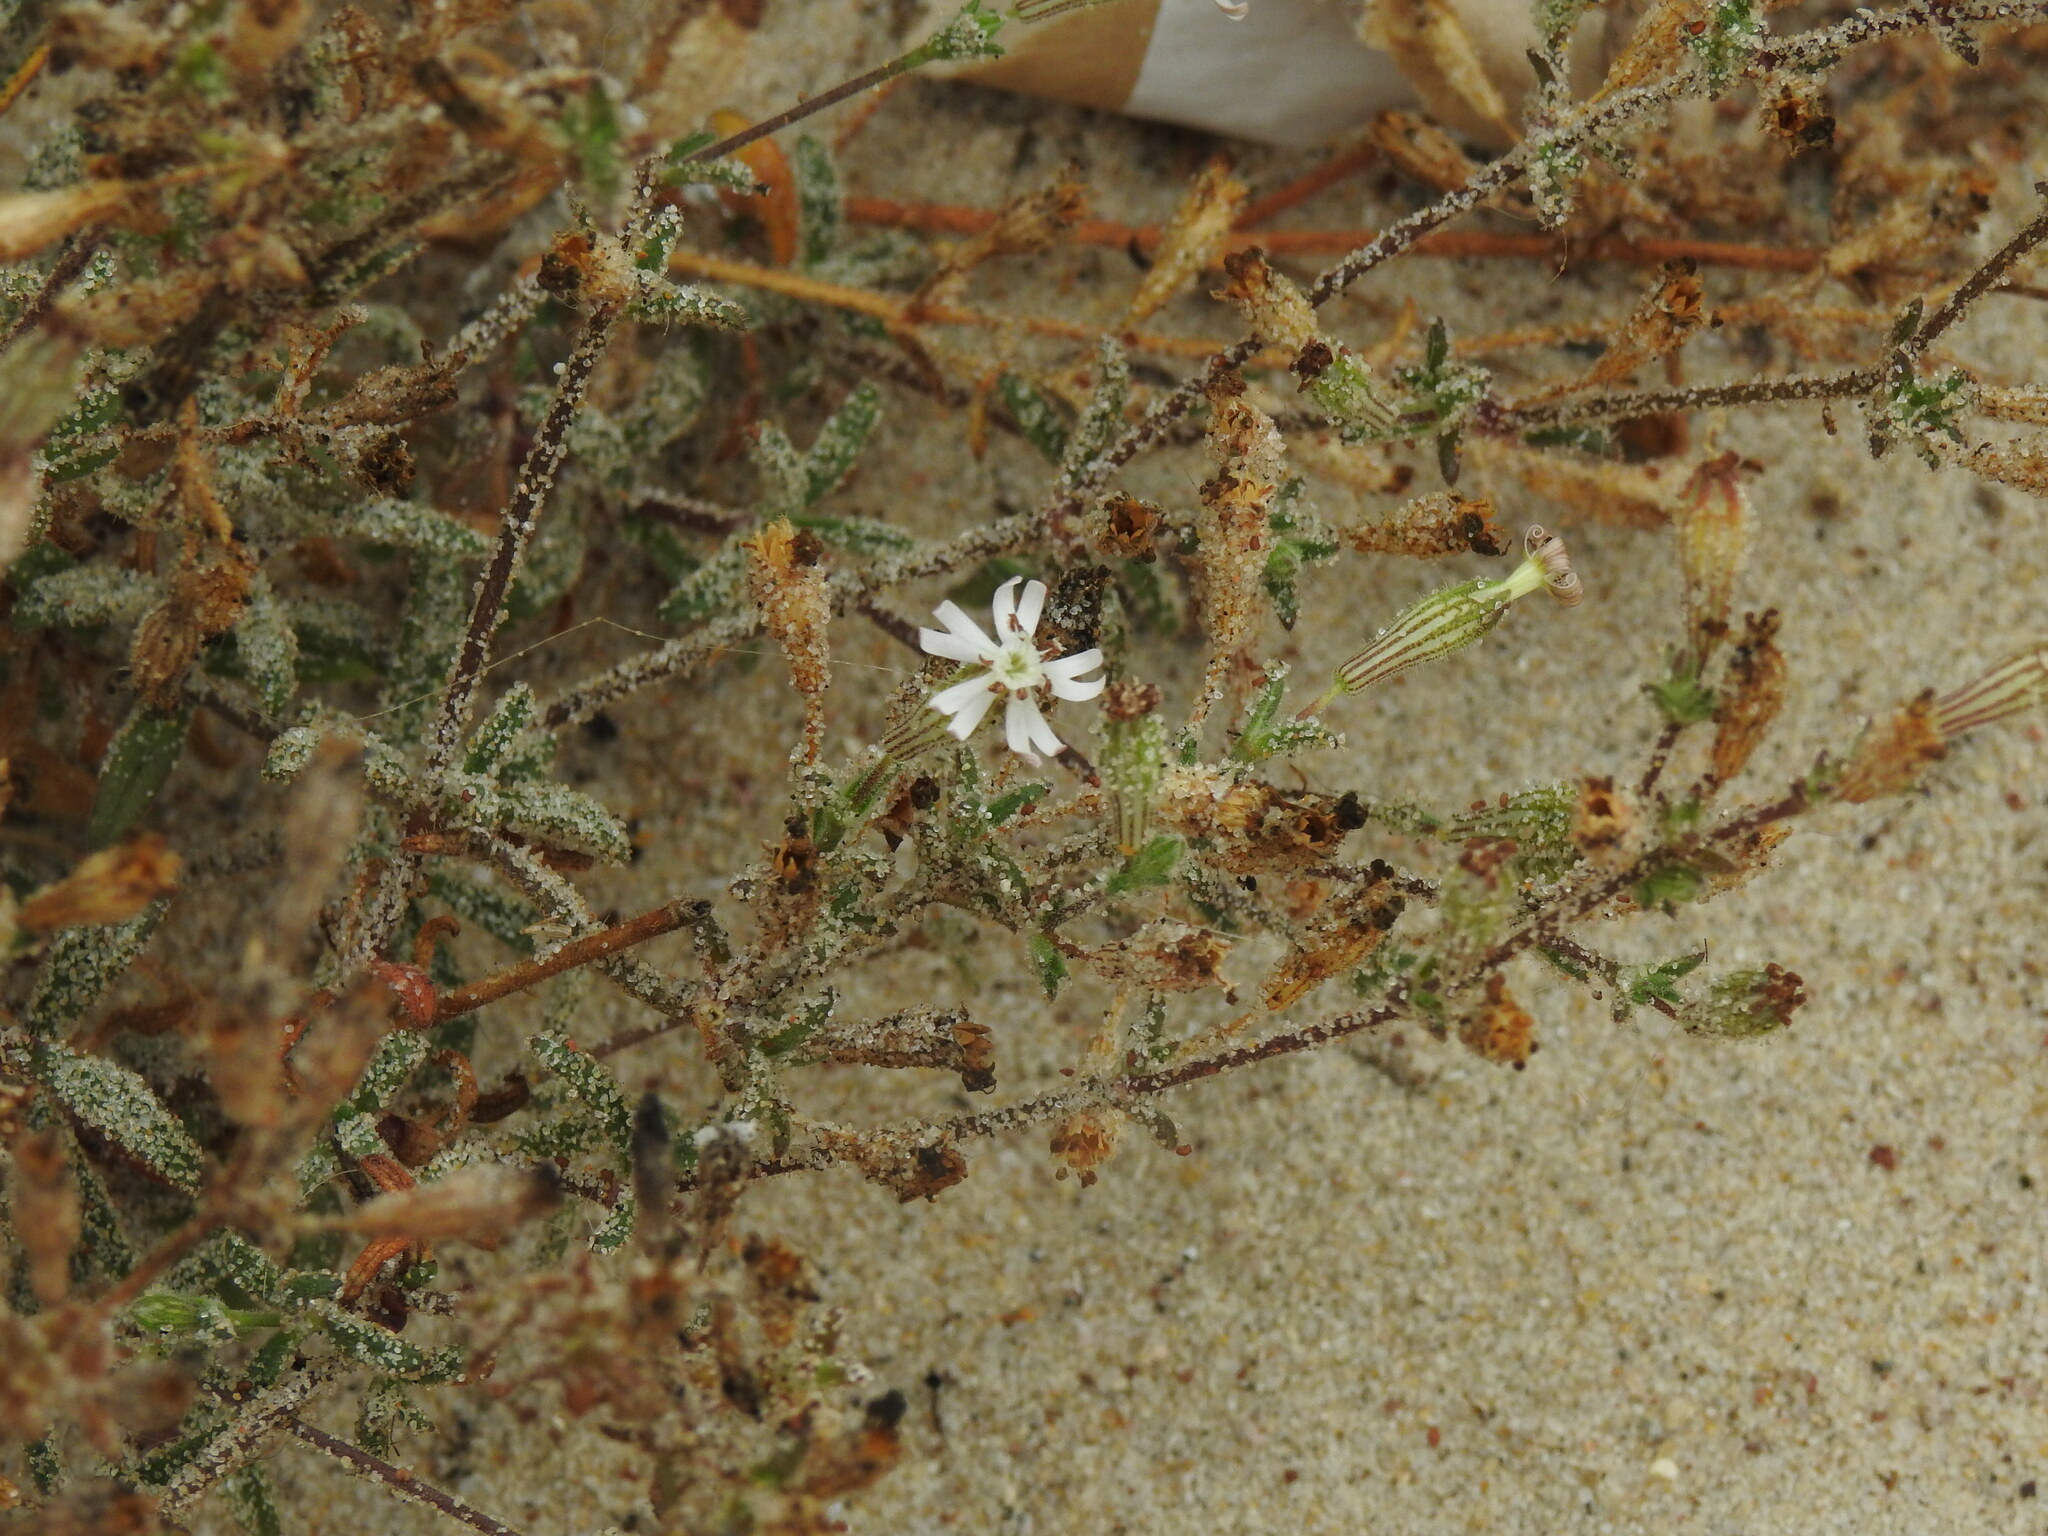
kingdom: Plantae
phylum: Tracheophyta
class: Magnoliopsida
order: Caryophyllales
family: Caryophyllaceae
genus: Silene
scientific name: Silene nicaeensis
